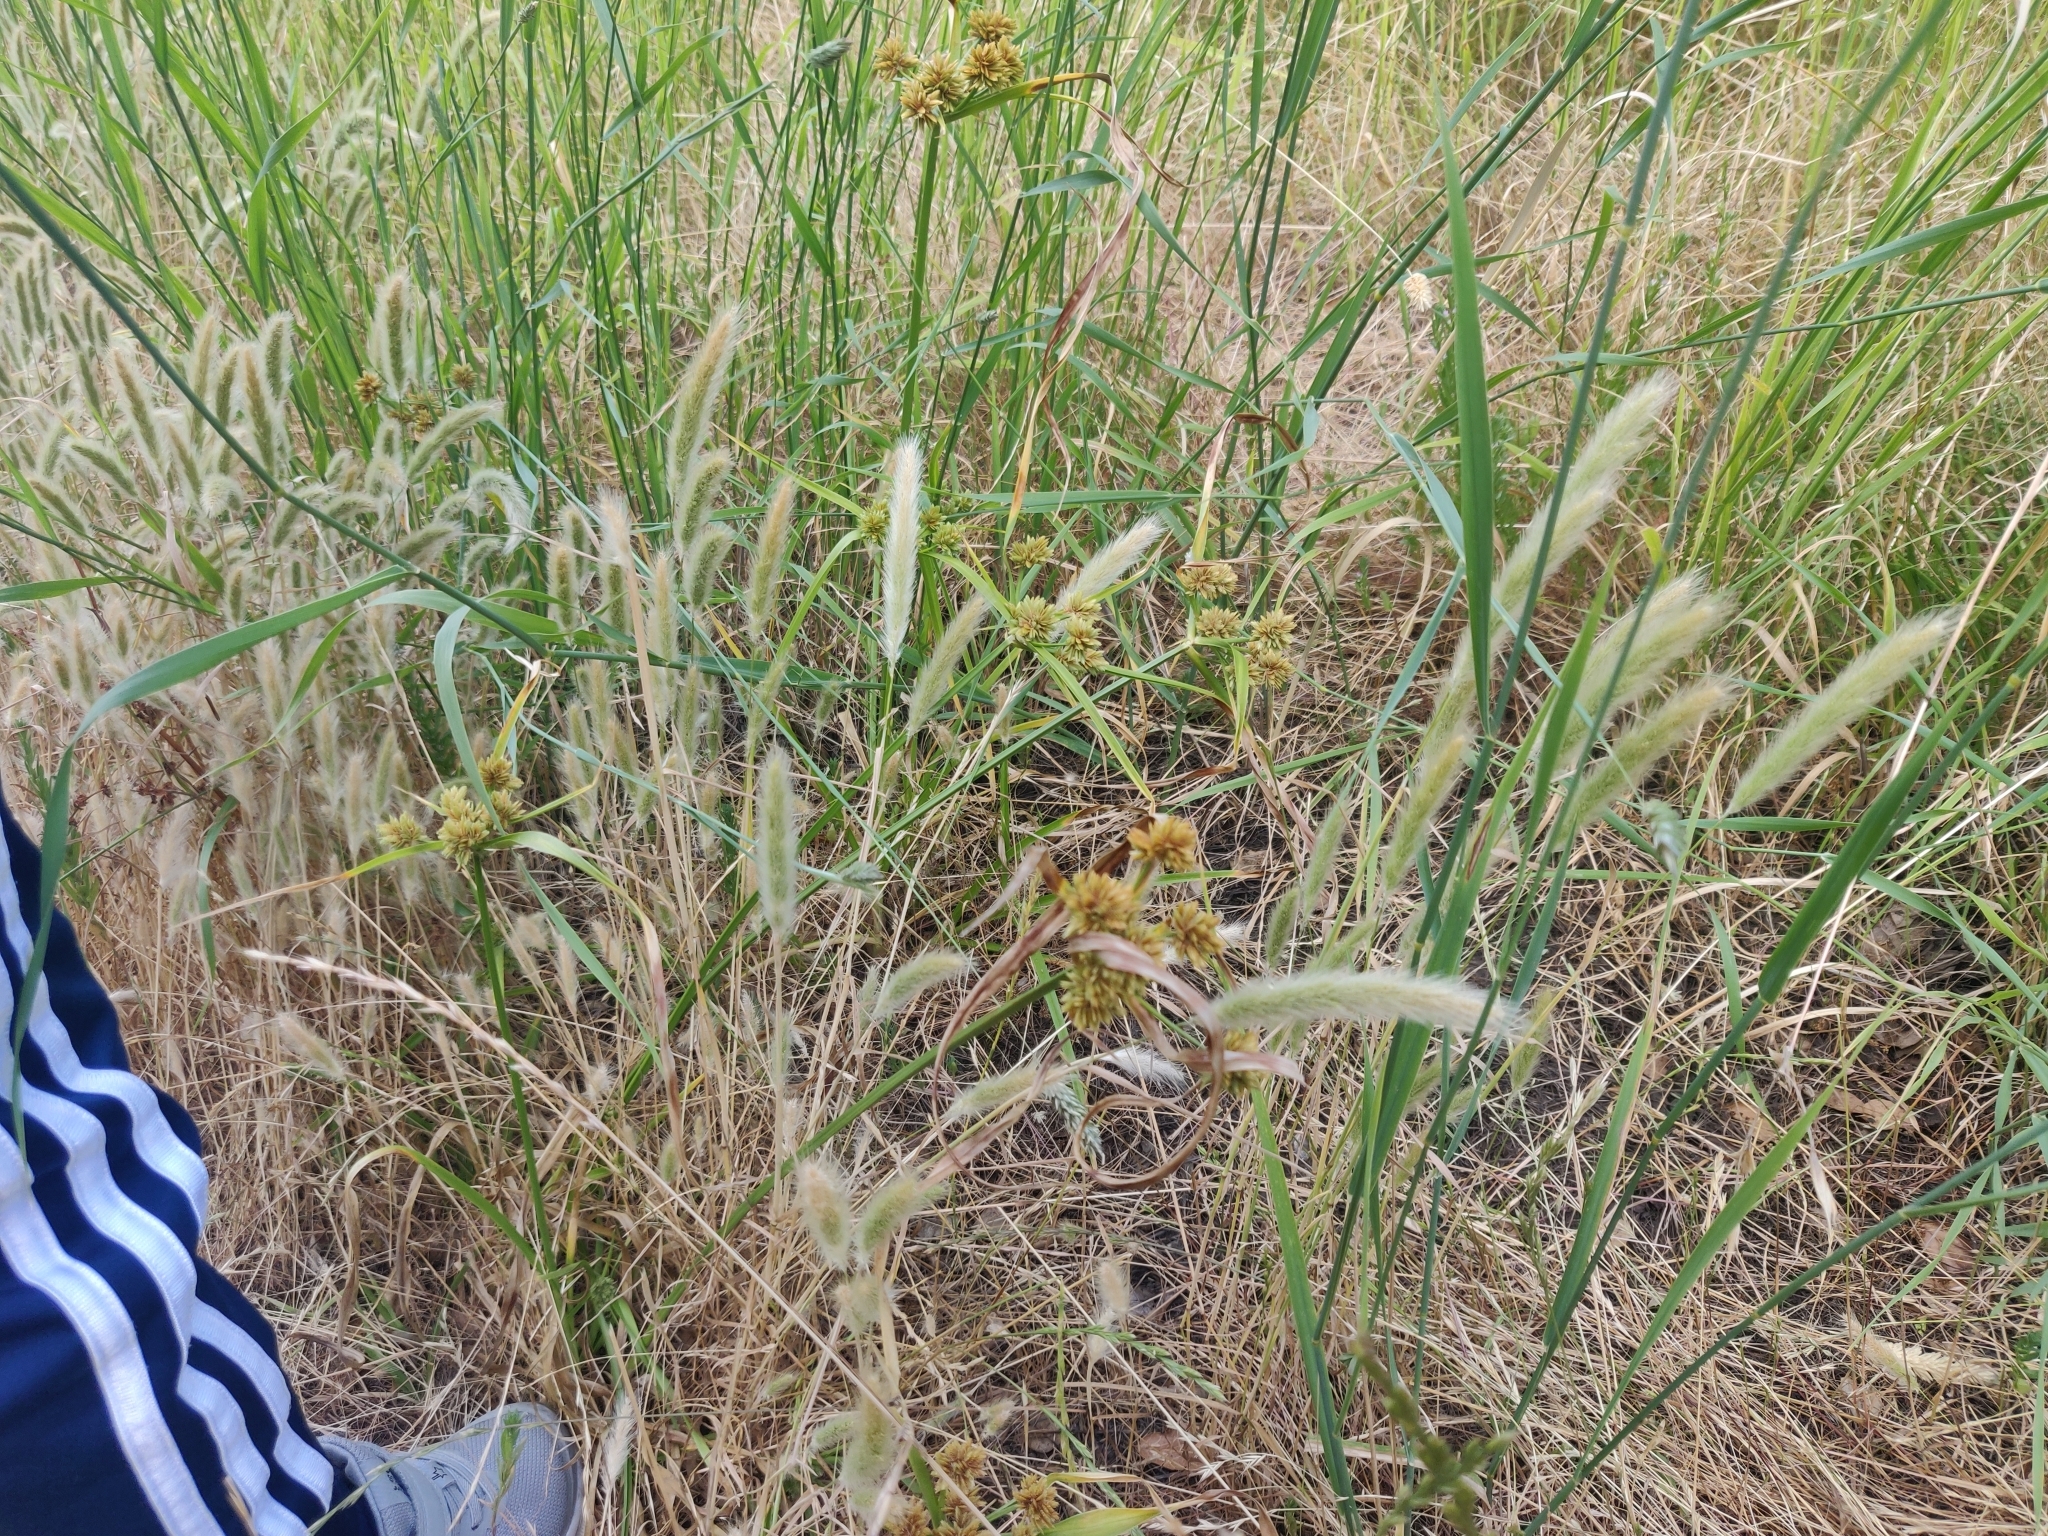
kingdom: Plantae
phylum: Tracheophyta
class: Liliopsida
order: Poales
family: Cyperaceae
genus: Cyperus
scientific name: Cyperus eragrostis
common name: Tall flatsedge
